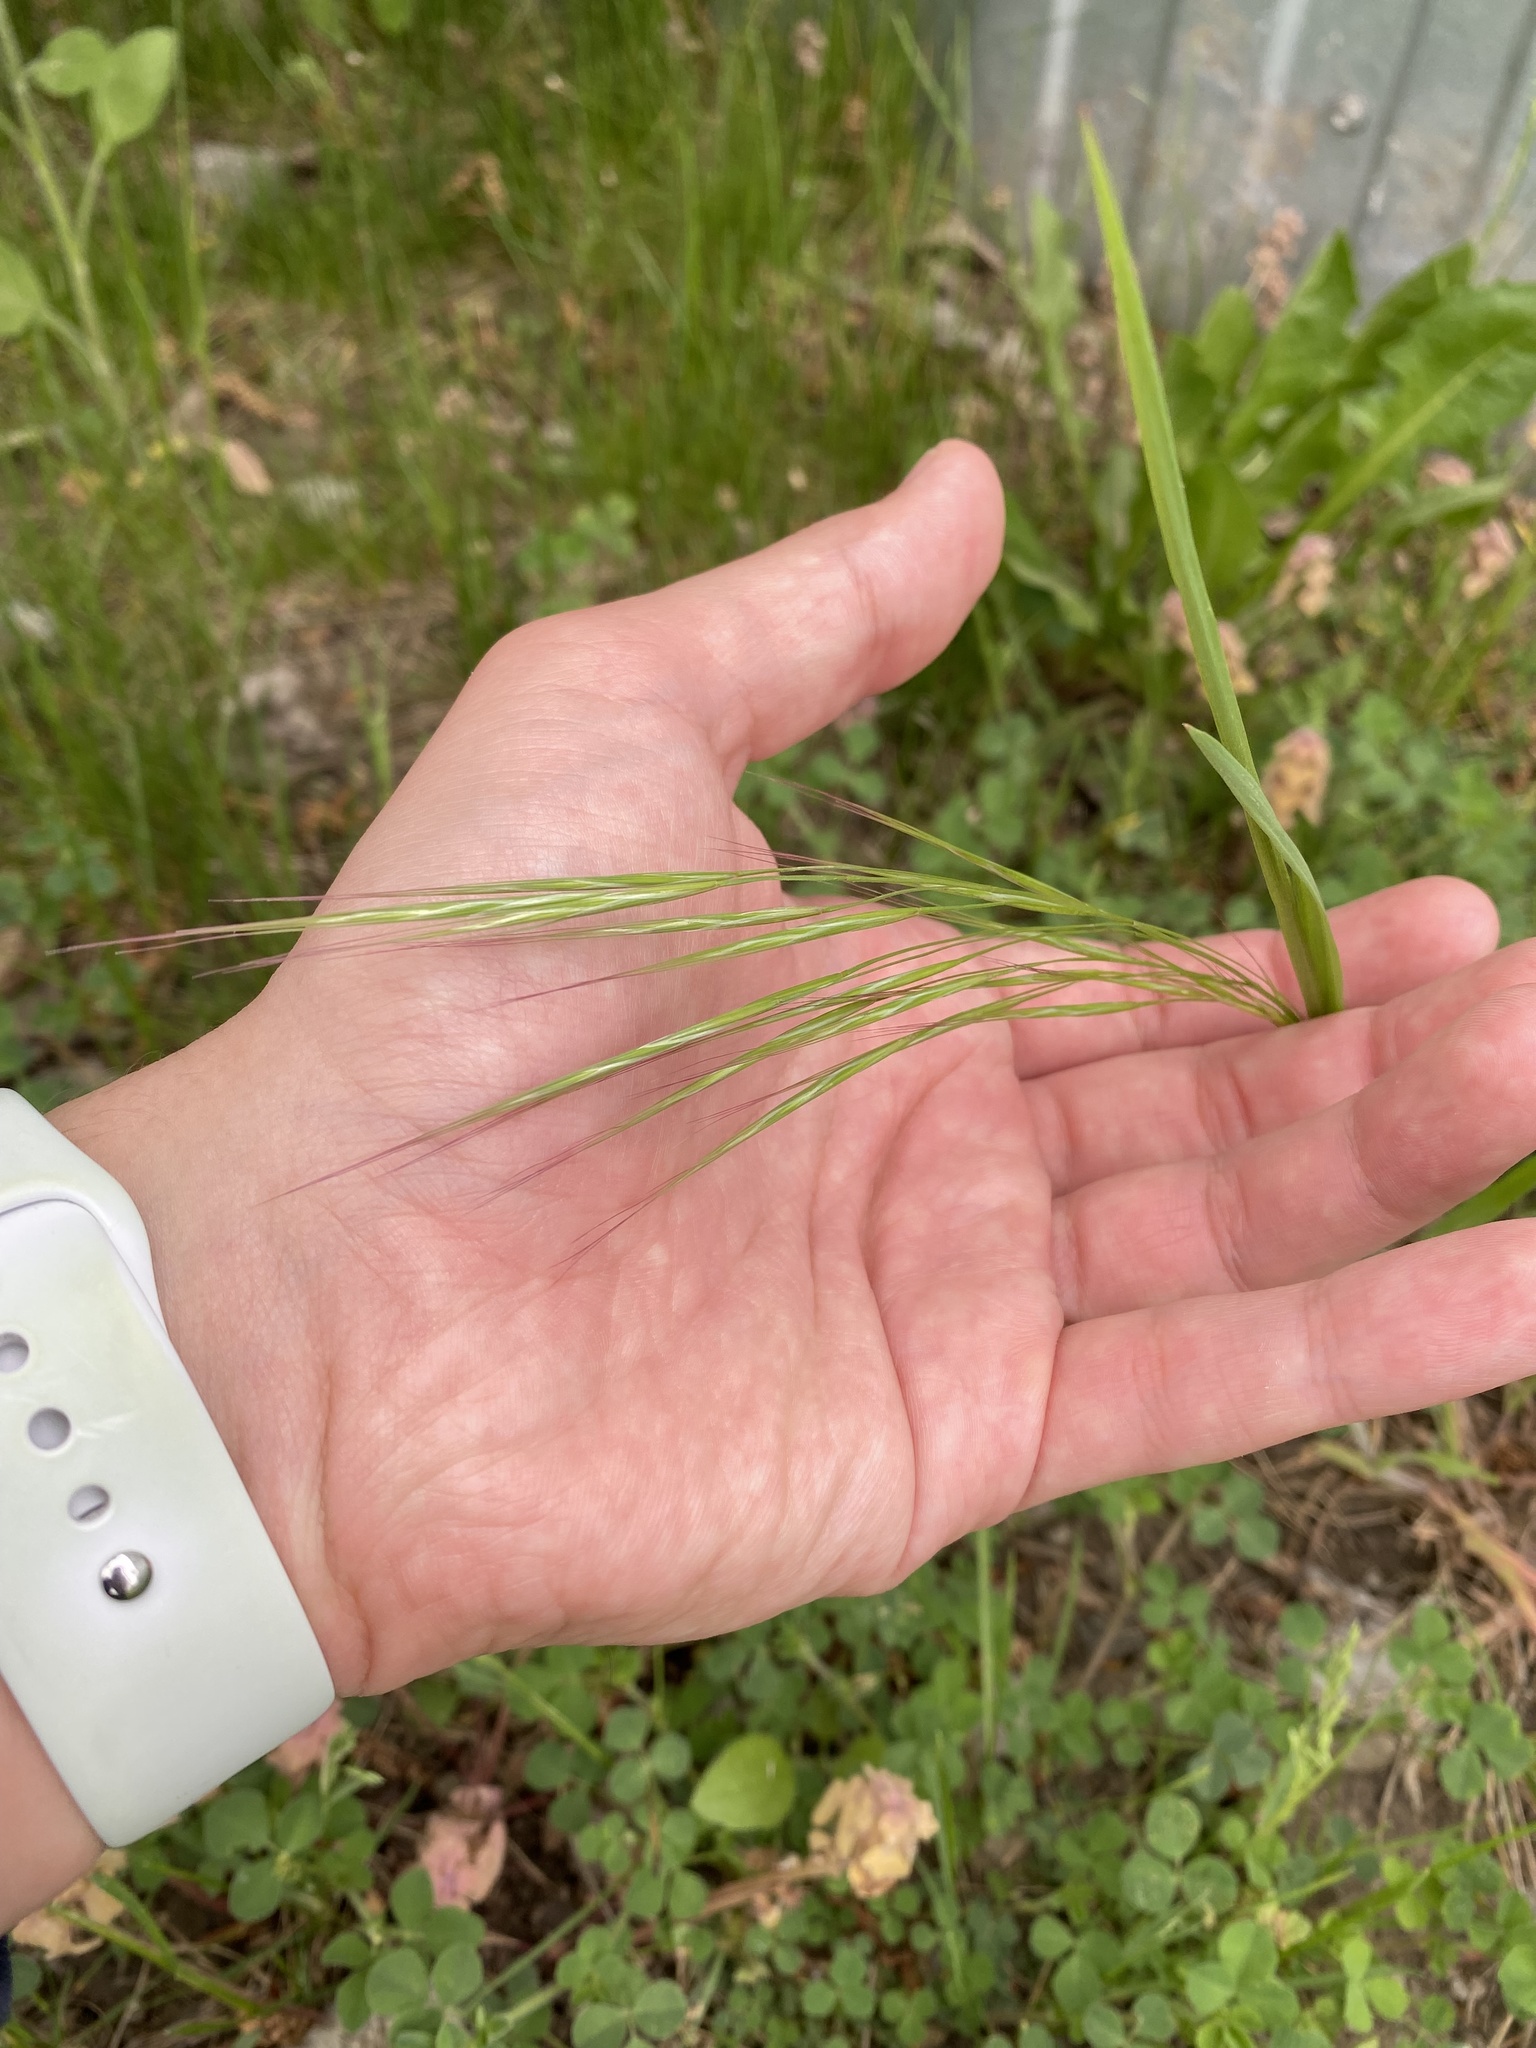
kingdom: Plantae
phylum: Tracheophyta
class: Liliopsida
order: Poales
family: Poaceae
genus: Bromus
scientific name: Bromus
